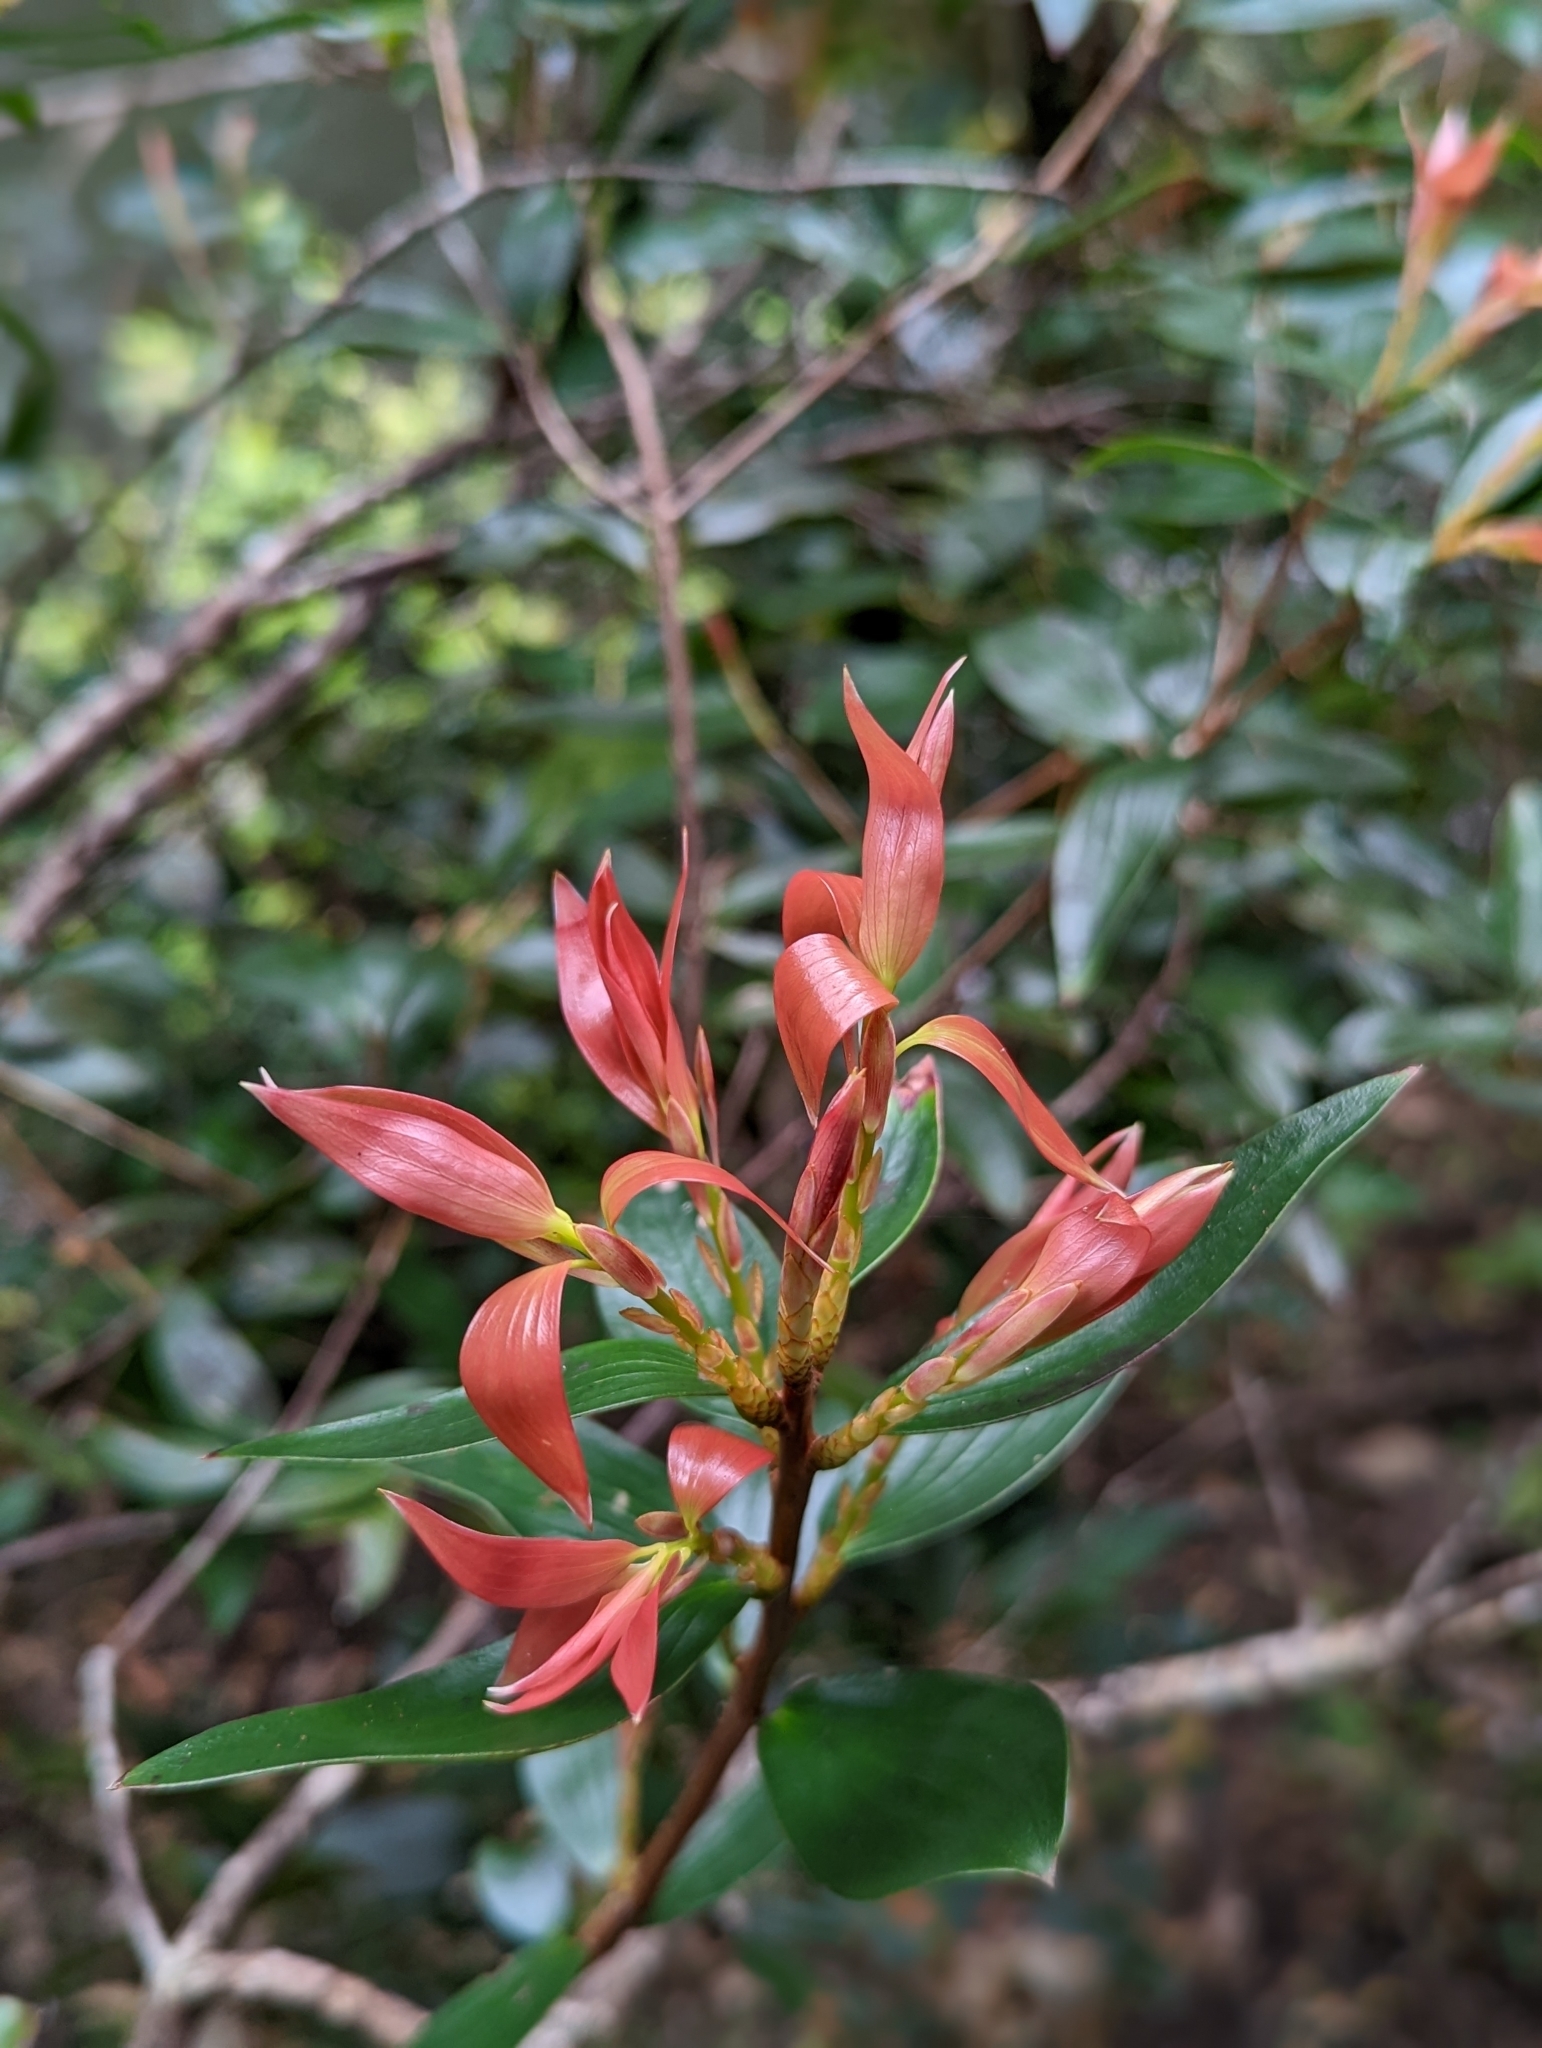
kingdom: Plantae
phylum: Tracheophyta
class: Magnoliopsida
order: Ericales
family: Ericaceae
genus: Trochocarpa
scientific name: Trochocarpa laurina
